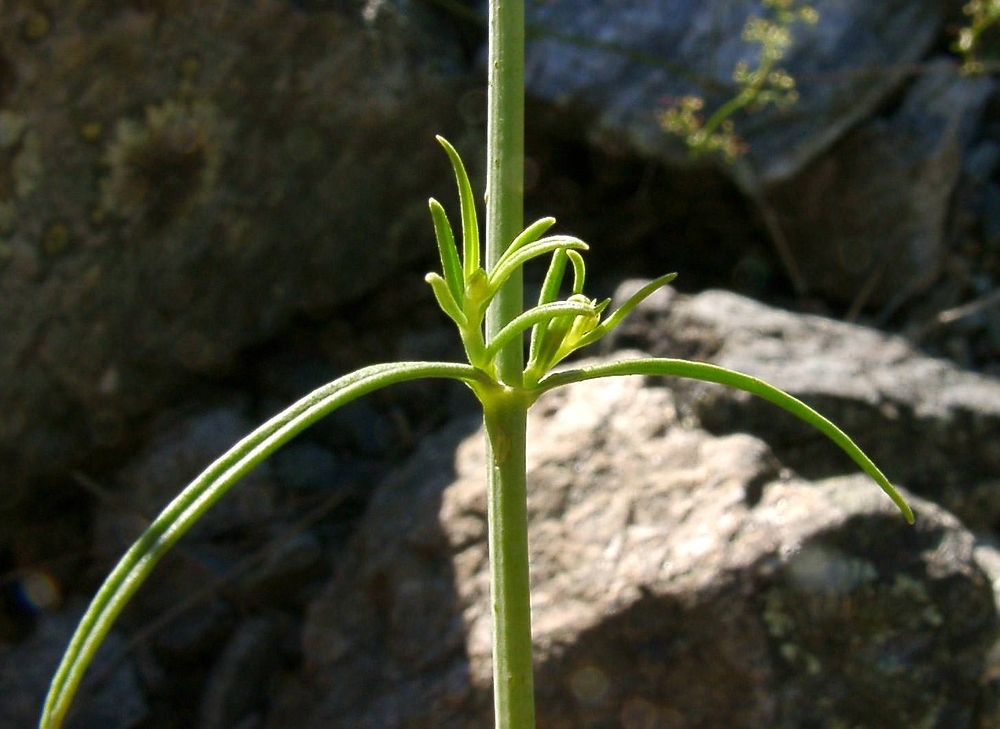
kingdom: Plantae
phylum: Tracheophyta
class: Magnoliopsida
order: Dipsacales
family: Caprifoliaceae
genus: Centranthus
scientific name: Centranthus angustifolius
